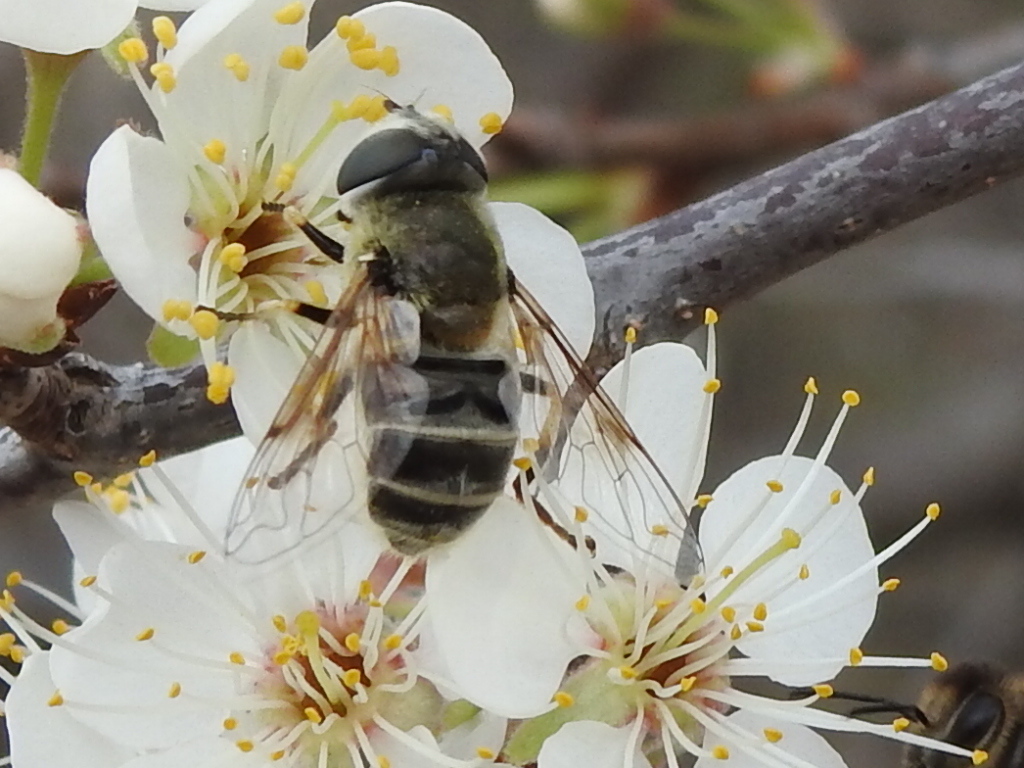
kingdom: Animalia
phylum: Arthropoda
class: Insecta
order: Diptera
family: Syrphidae
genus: Eristalis
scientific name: Eristalis stipator
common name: Yellow-shouldered drone fly
